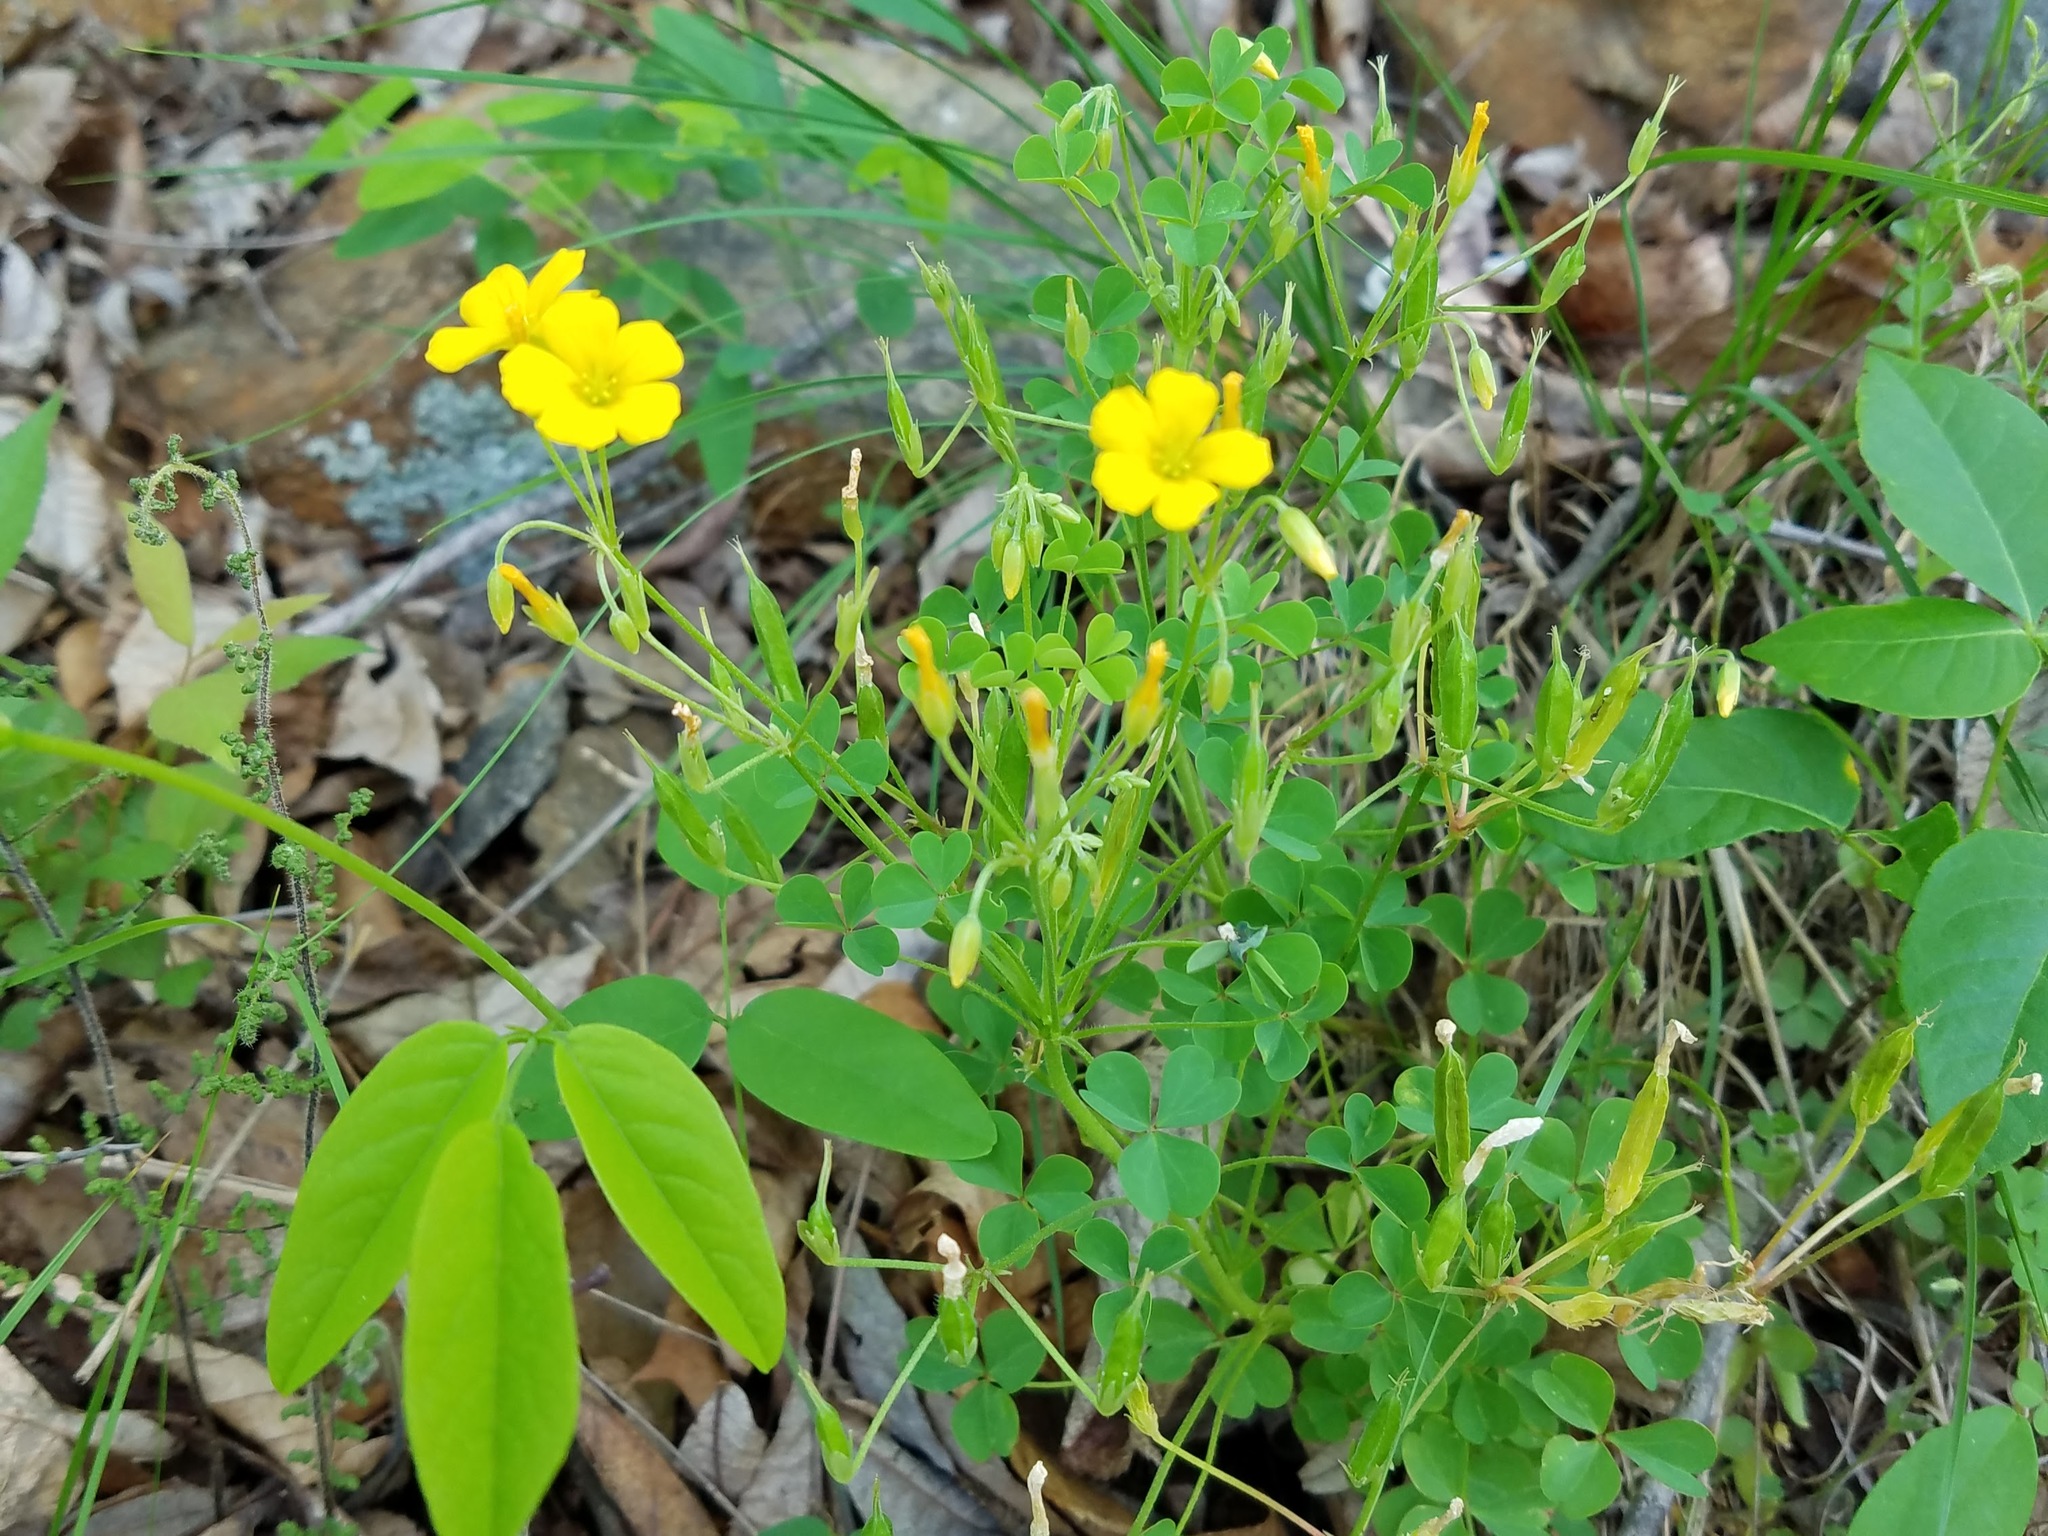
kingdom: Plantae
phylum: Tracheophyta
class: Magnoliopsida
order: Oxalidales
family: Oxalidaceae
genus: Oxalis
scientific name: Oxalis dillenii
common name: Sussex yellow-sorrel
